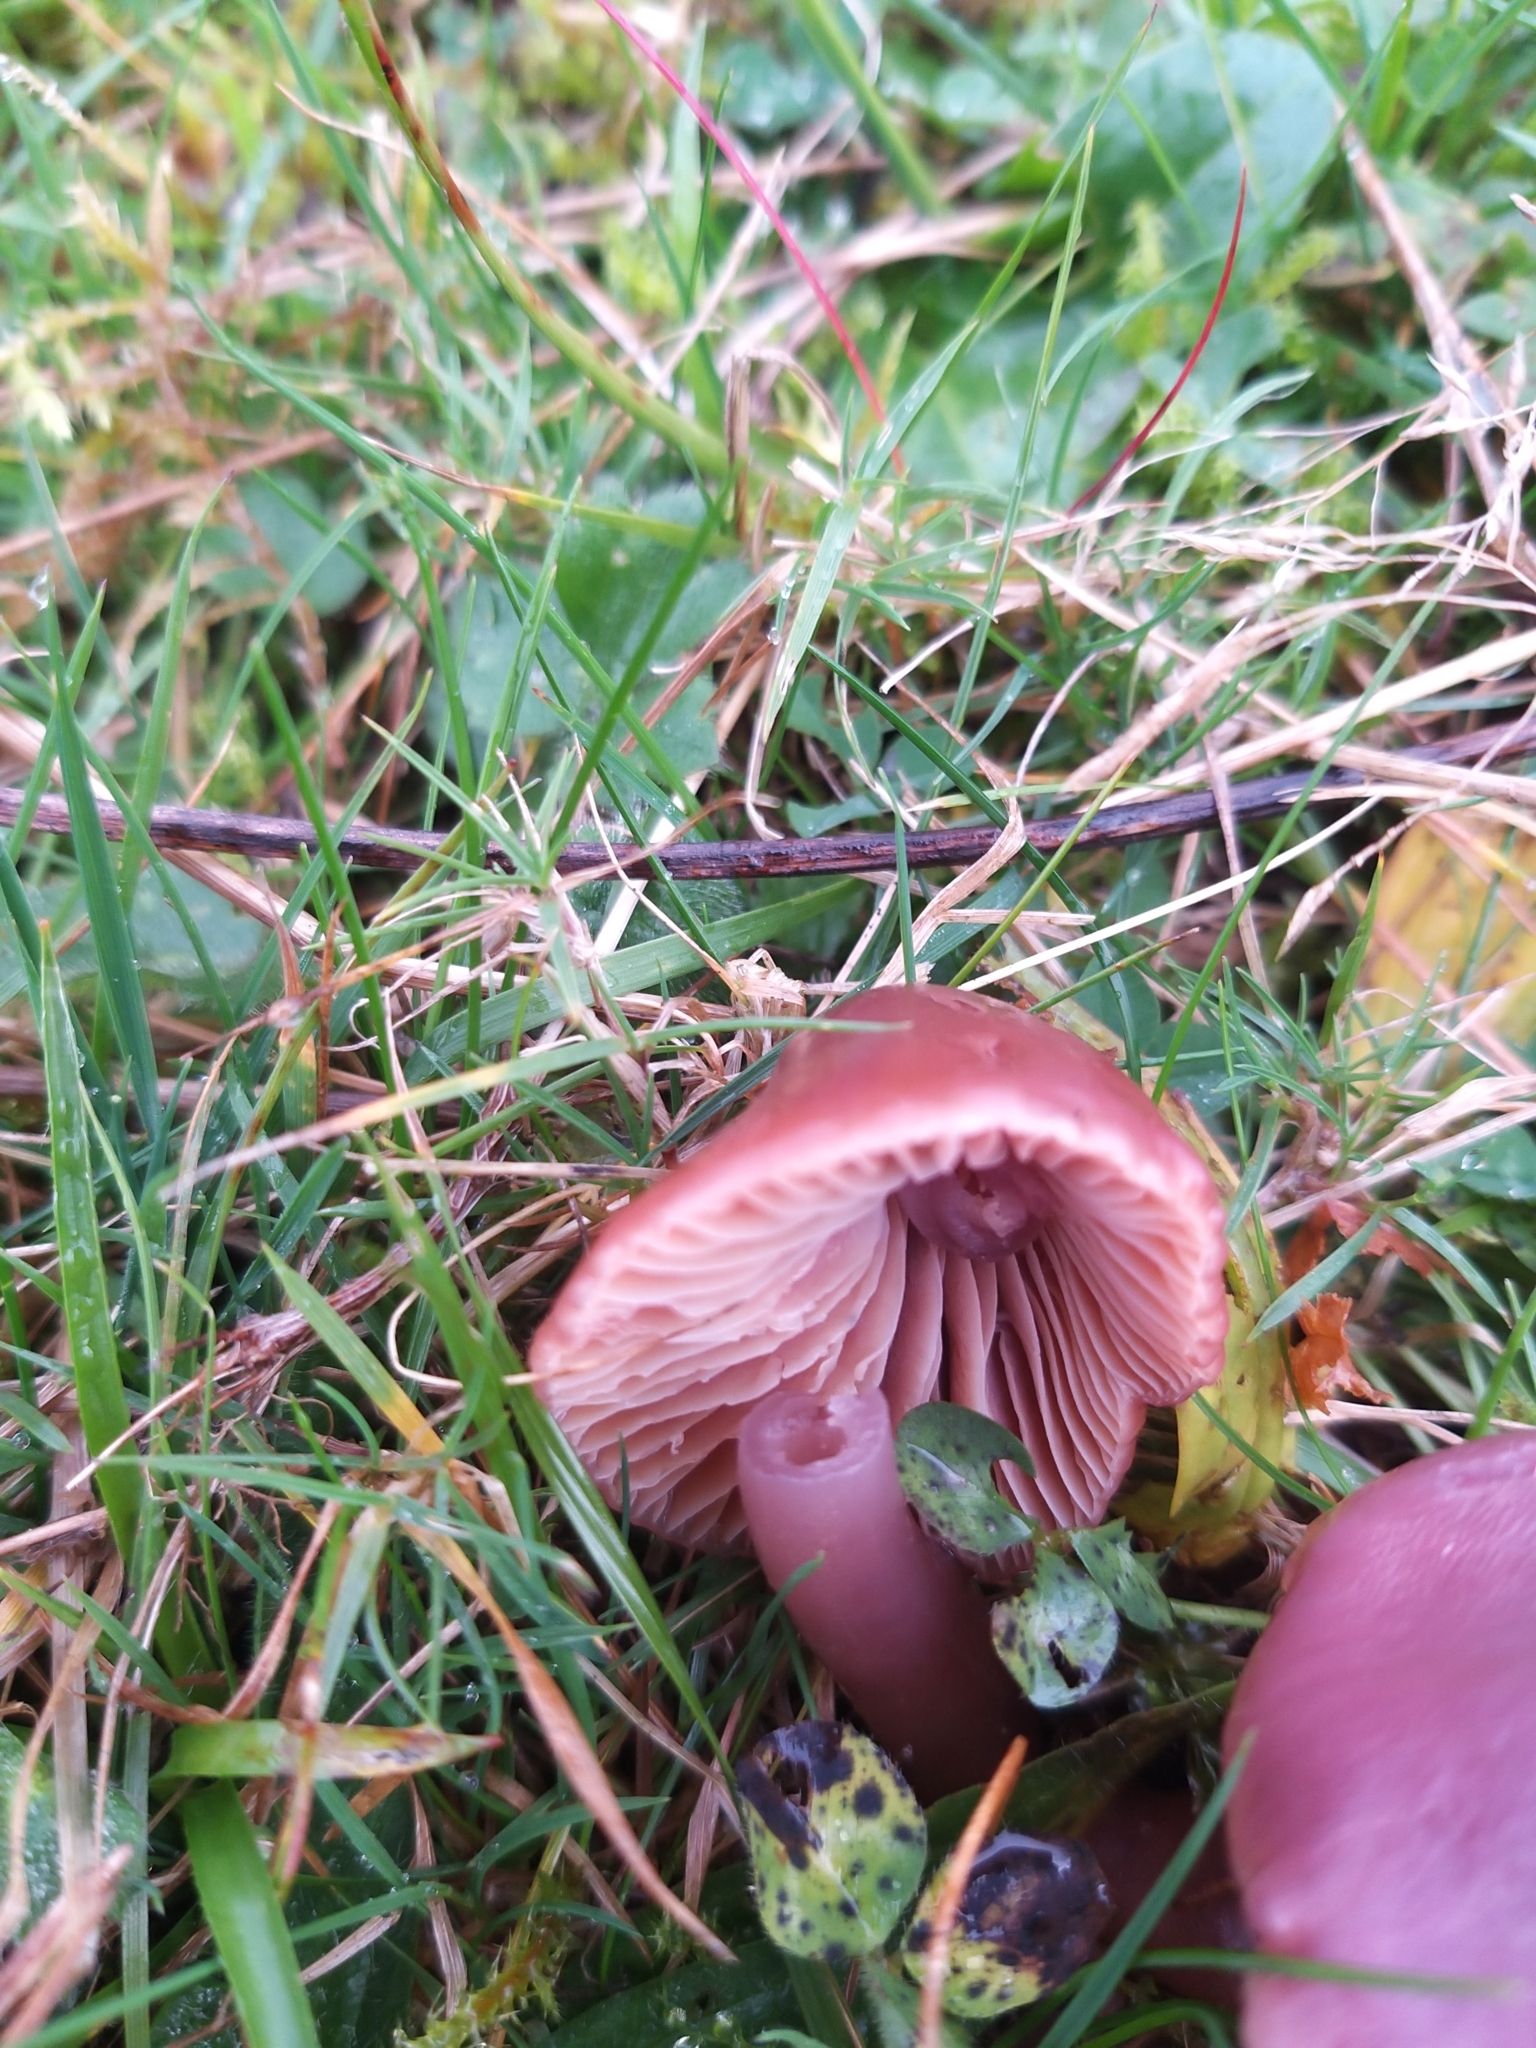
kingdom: Fungi
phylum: Basidiomycota
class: Agaricomycetes
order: Agaricales
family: Hygrophoraceae
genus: Gliophorus
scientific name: Gliophorus reginae
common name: Jubilee waxcap
